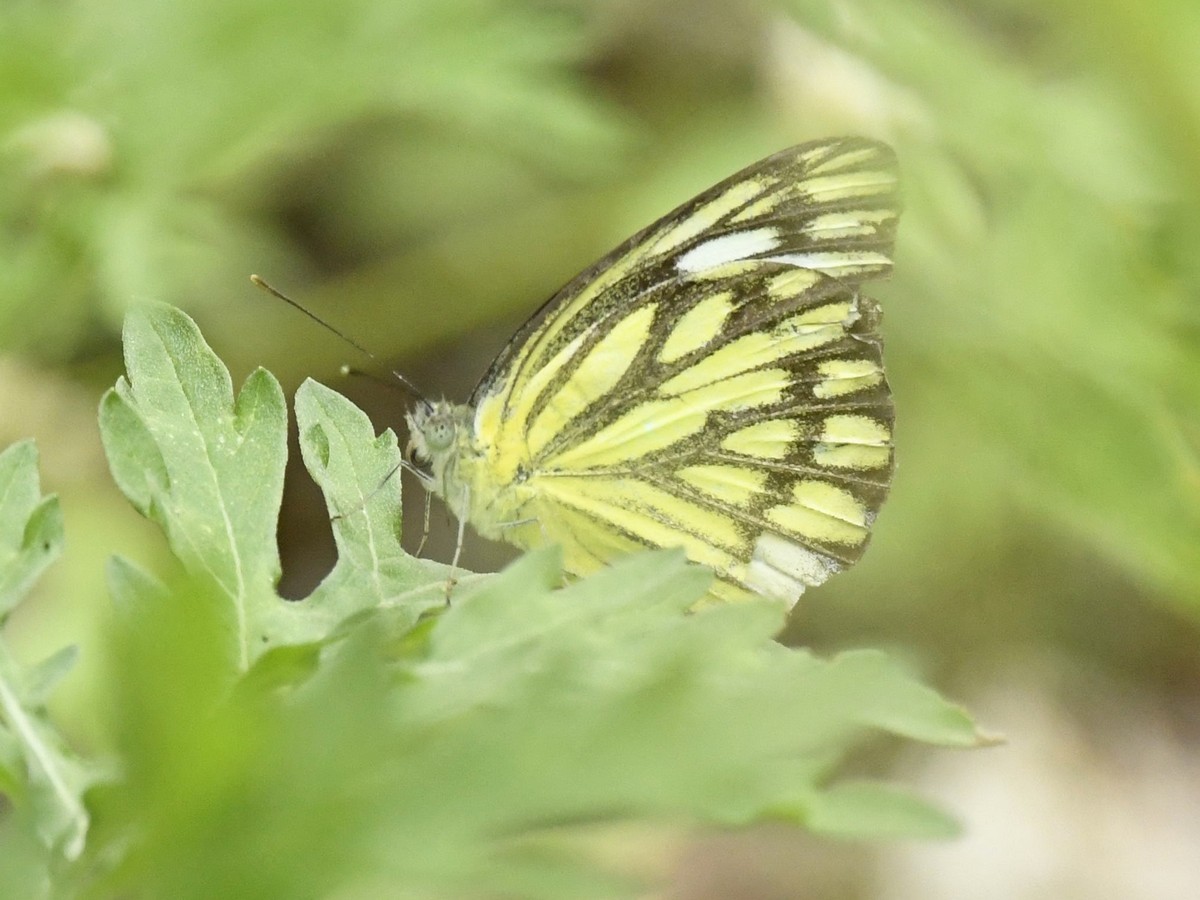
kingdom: Animalia
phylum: Arthropoda
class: Insecta
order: Lepidoptera
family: Pieridae
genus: Cepora
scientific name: Cepora nerissa
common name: Common gull
